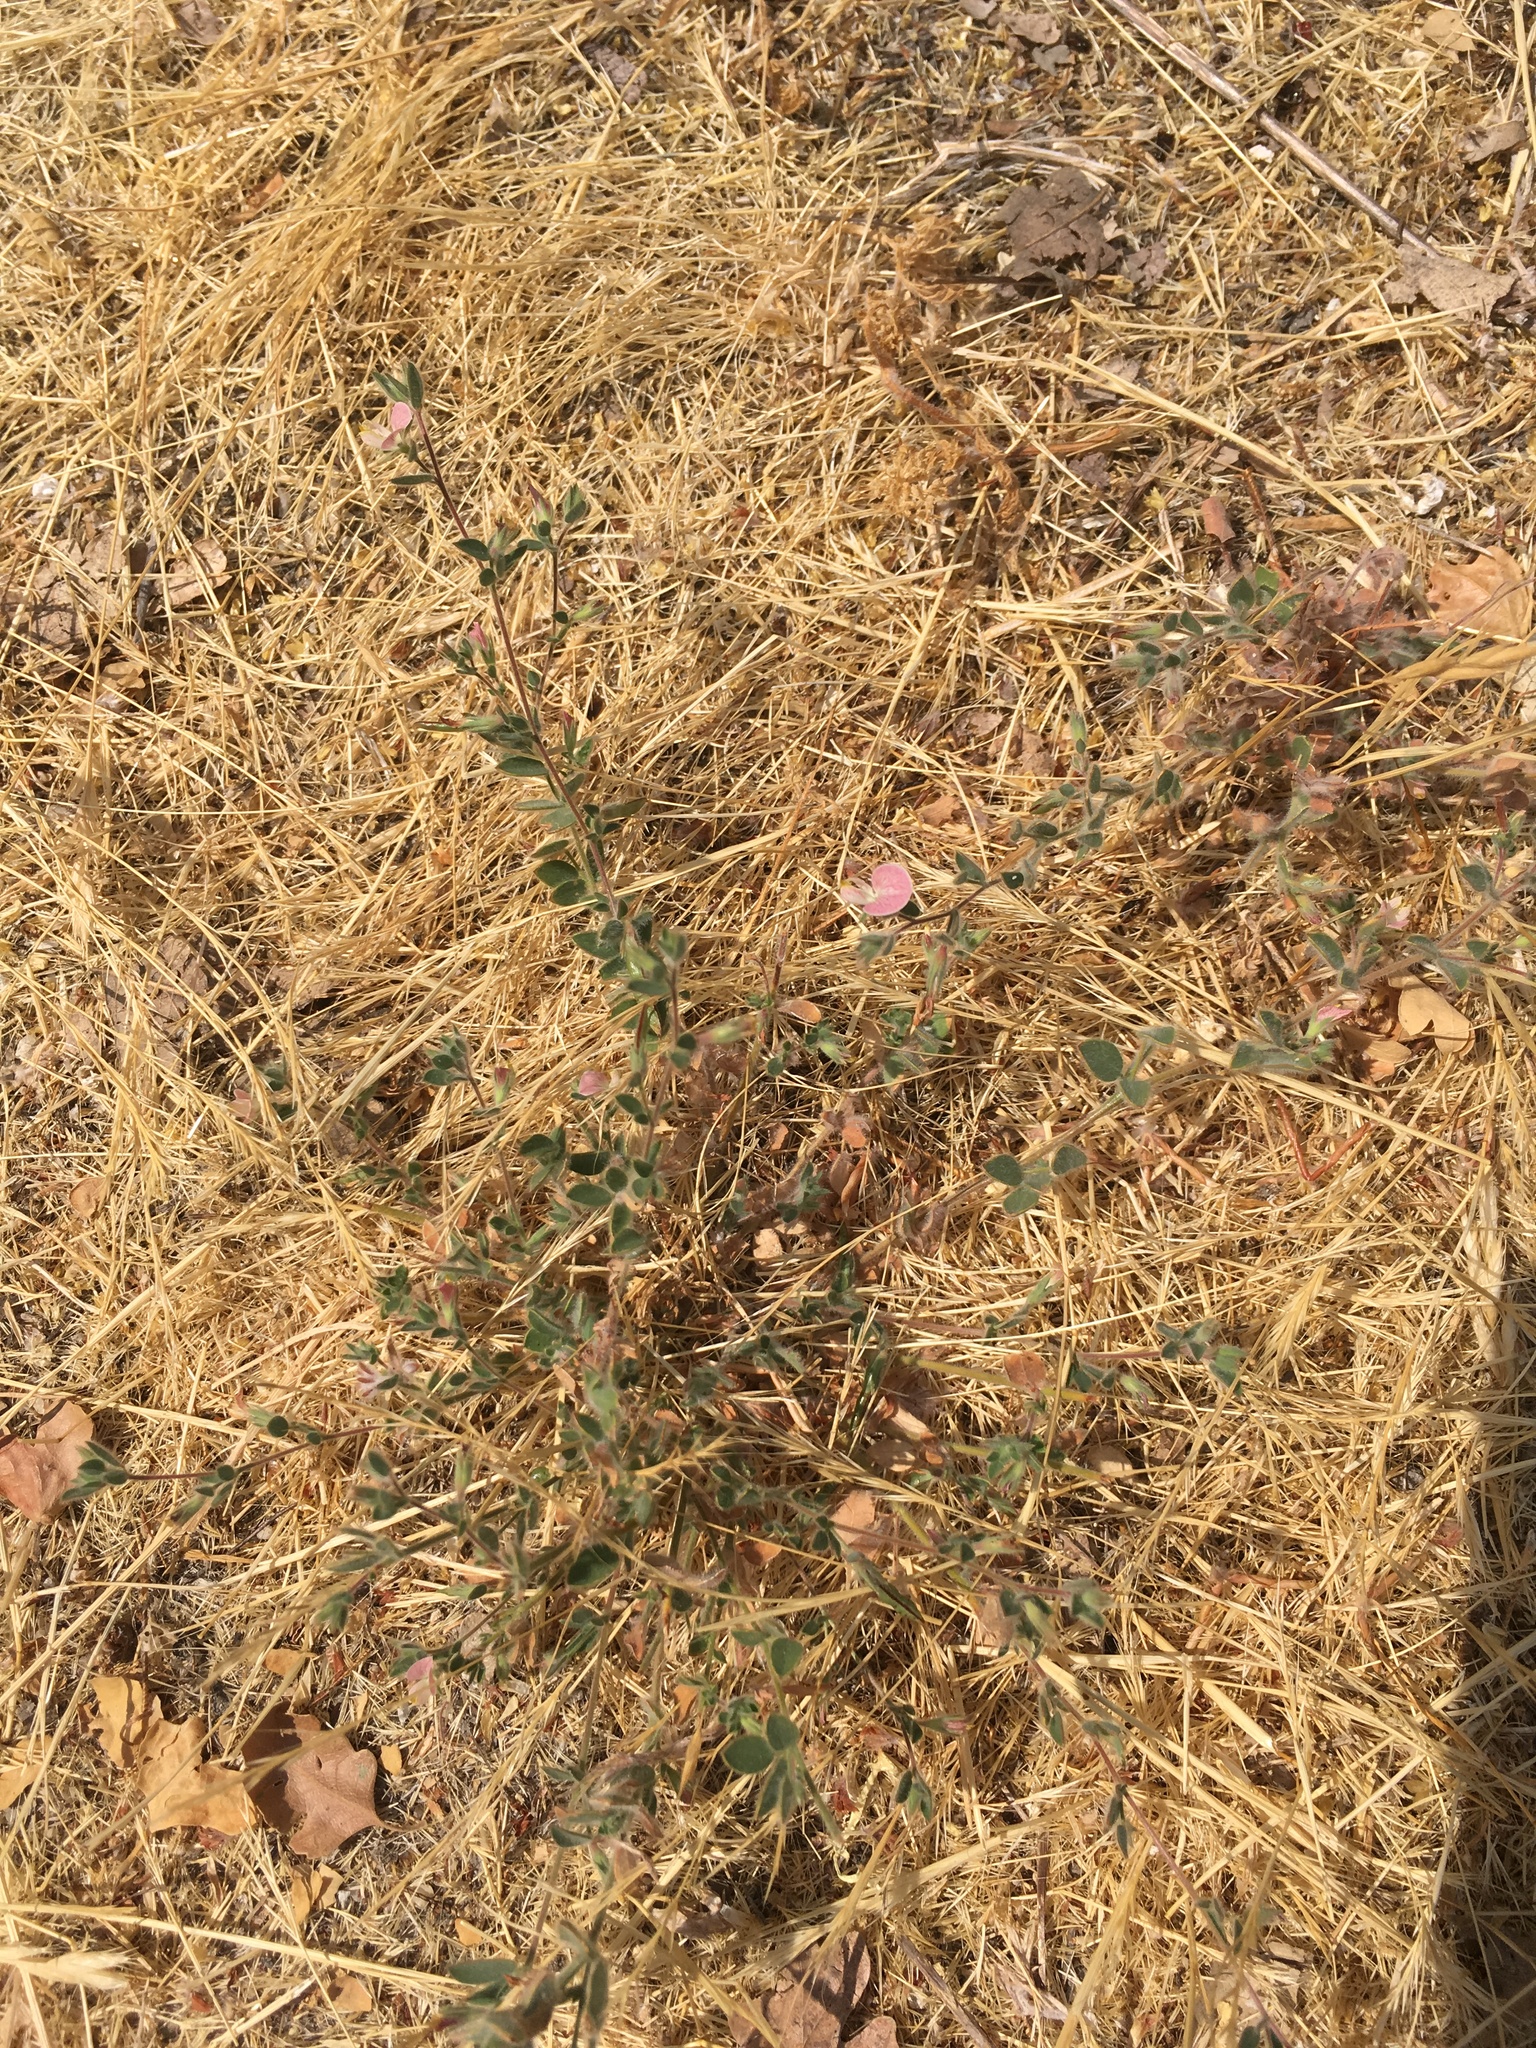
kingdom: Plantae
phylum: Tracheophyta
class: Magnoliopsida
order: Fabales
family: Fabaceae
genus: Acmispon
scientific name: Acmispon americanus
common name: American bird's-foot trefoil
